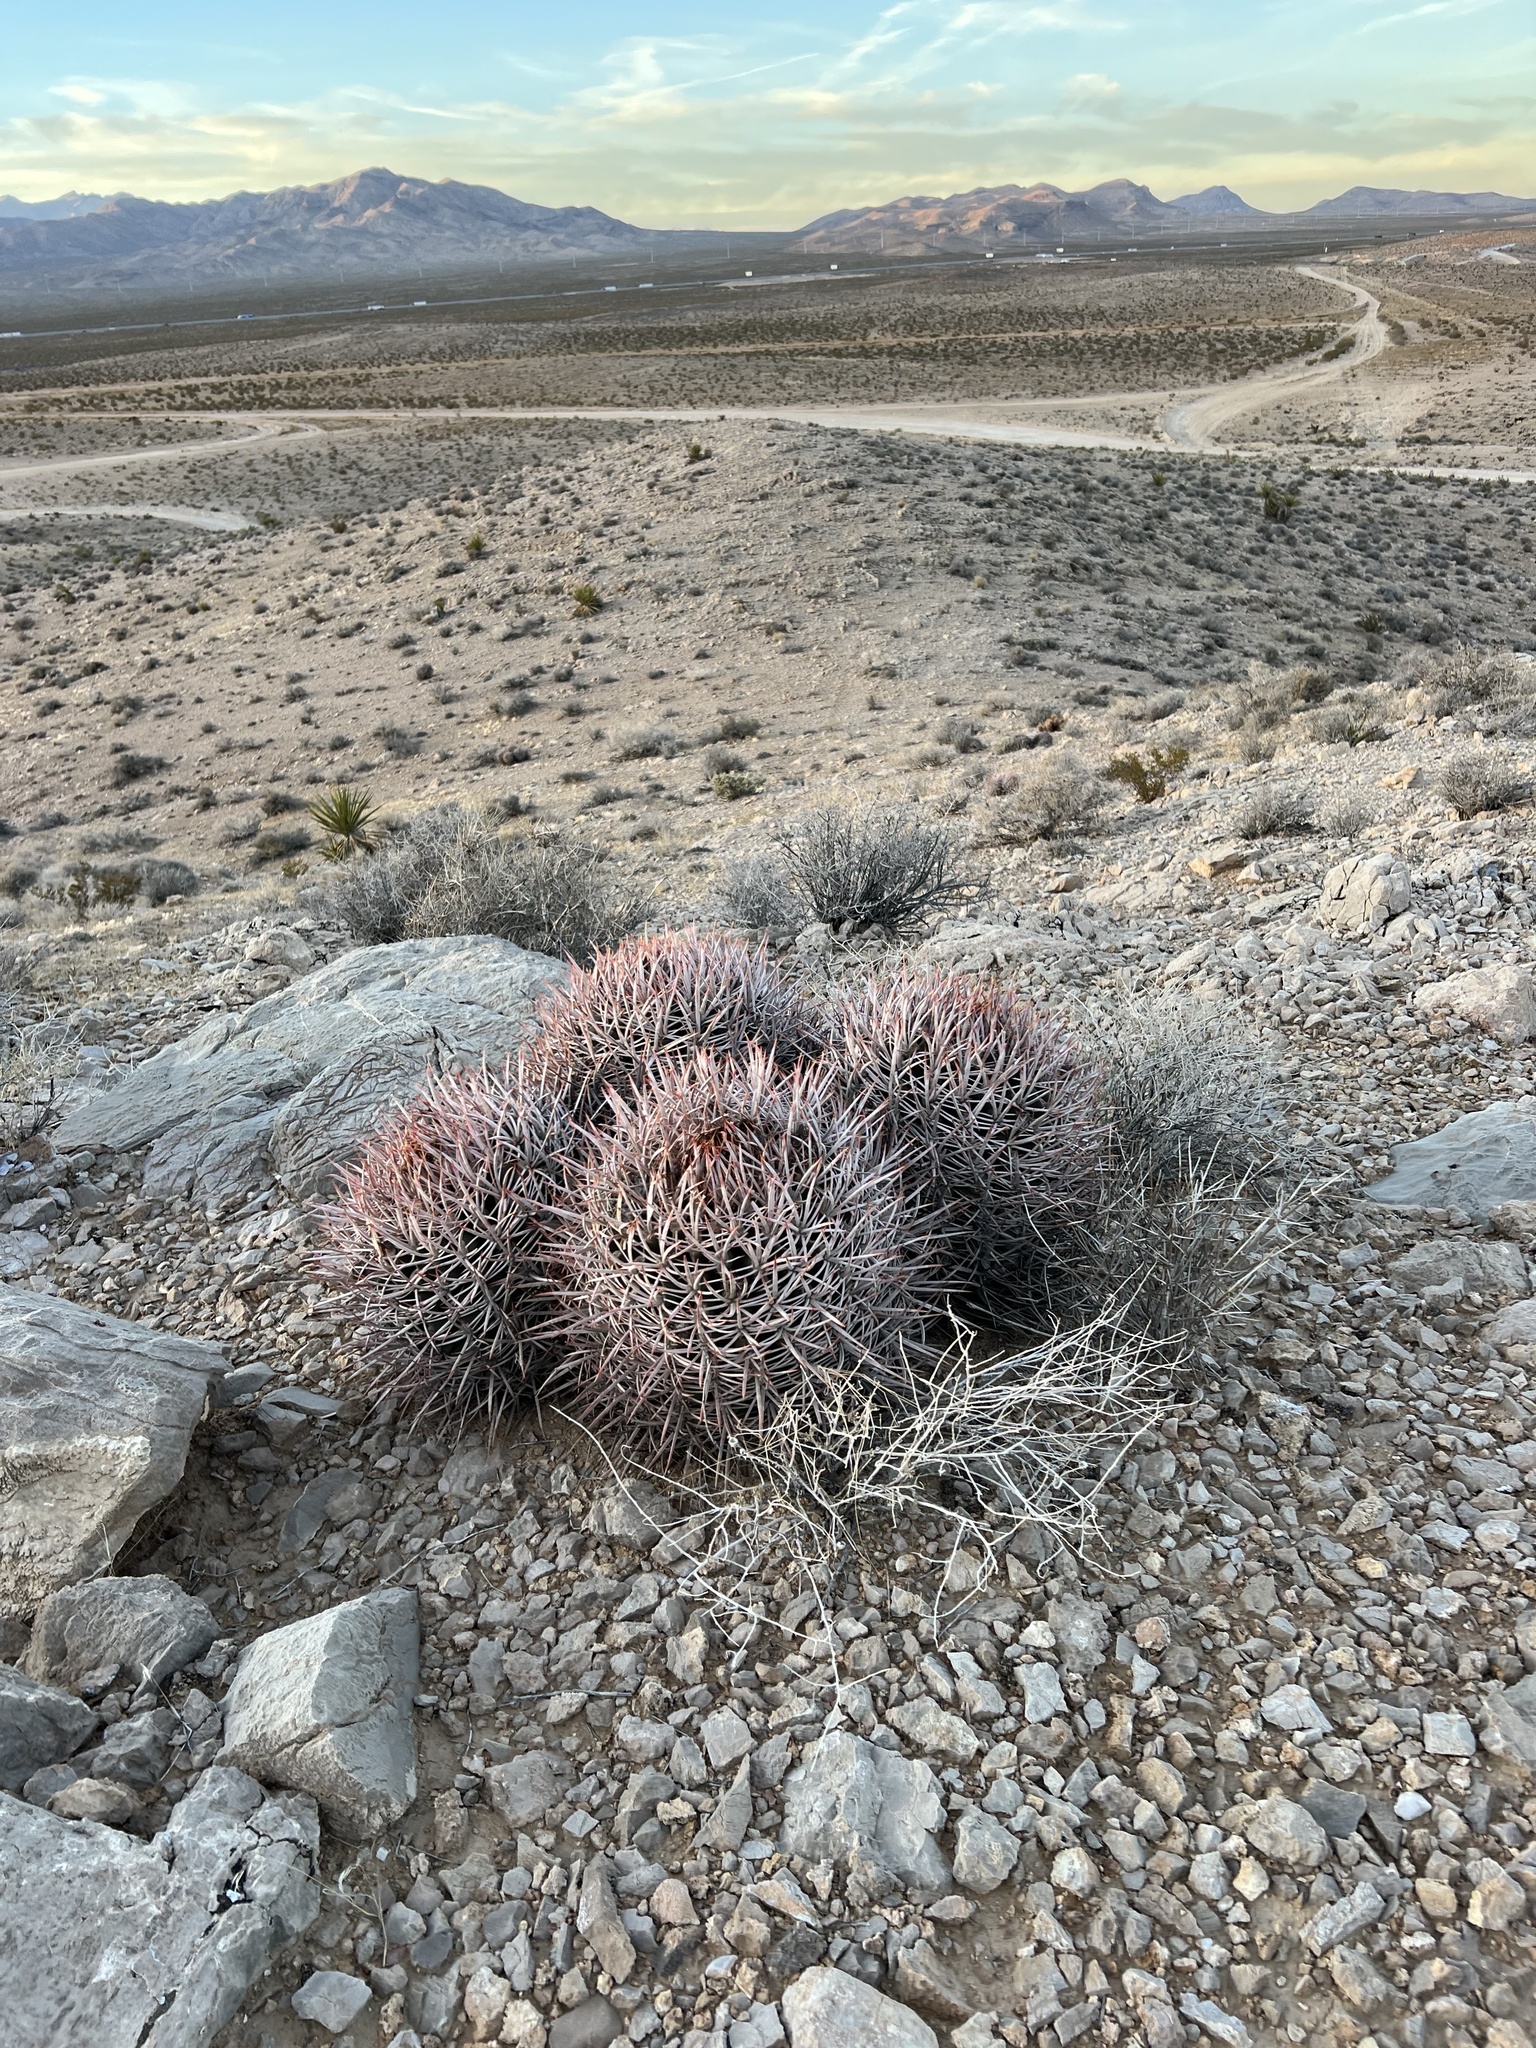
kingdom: Plantae
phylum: Tracheophyta
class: Magnoliopsida
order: Caryophyllales
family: Cactaceae
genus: Echinocactus
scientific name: Echinocactus polycephalus
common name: Cottontop cactus
